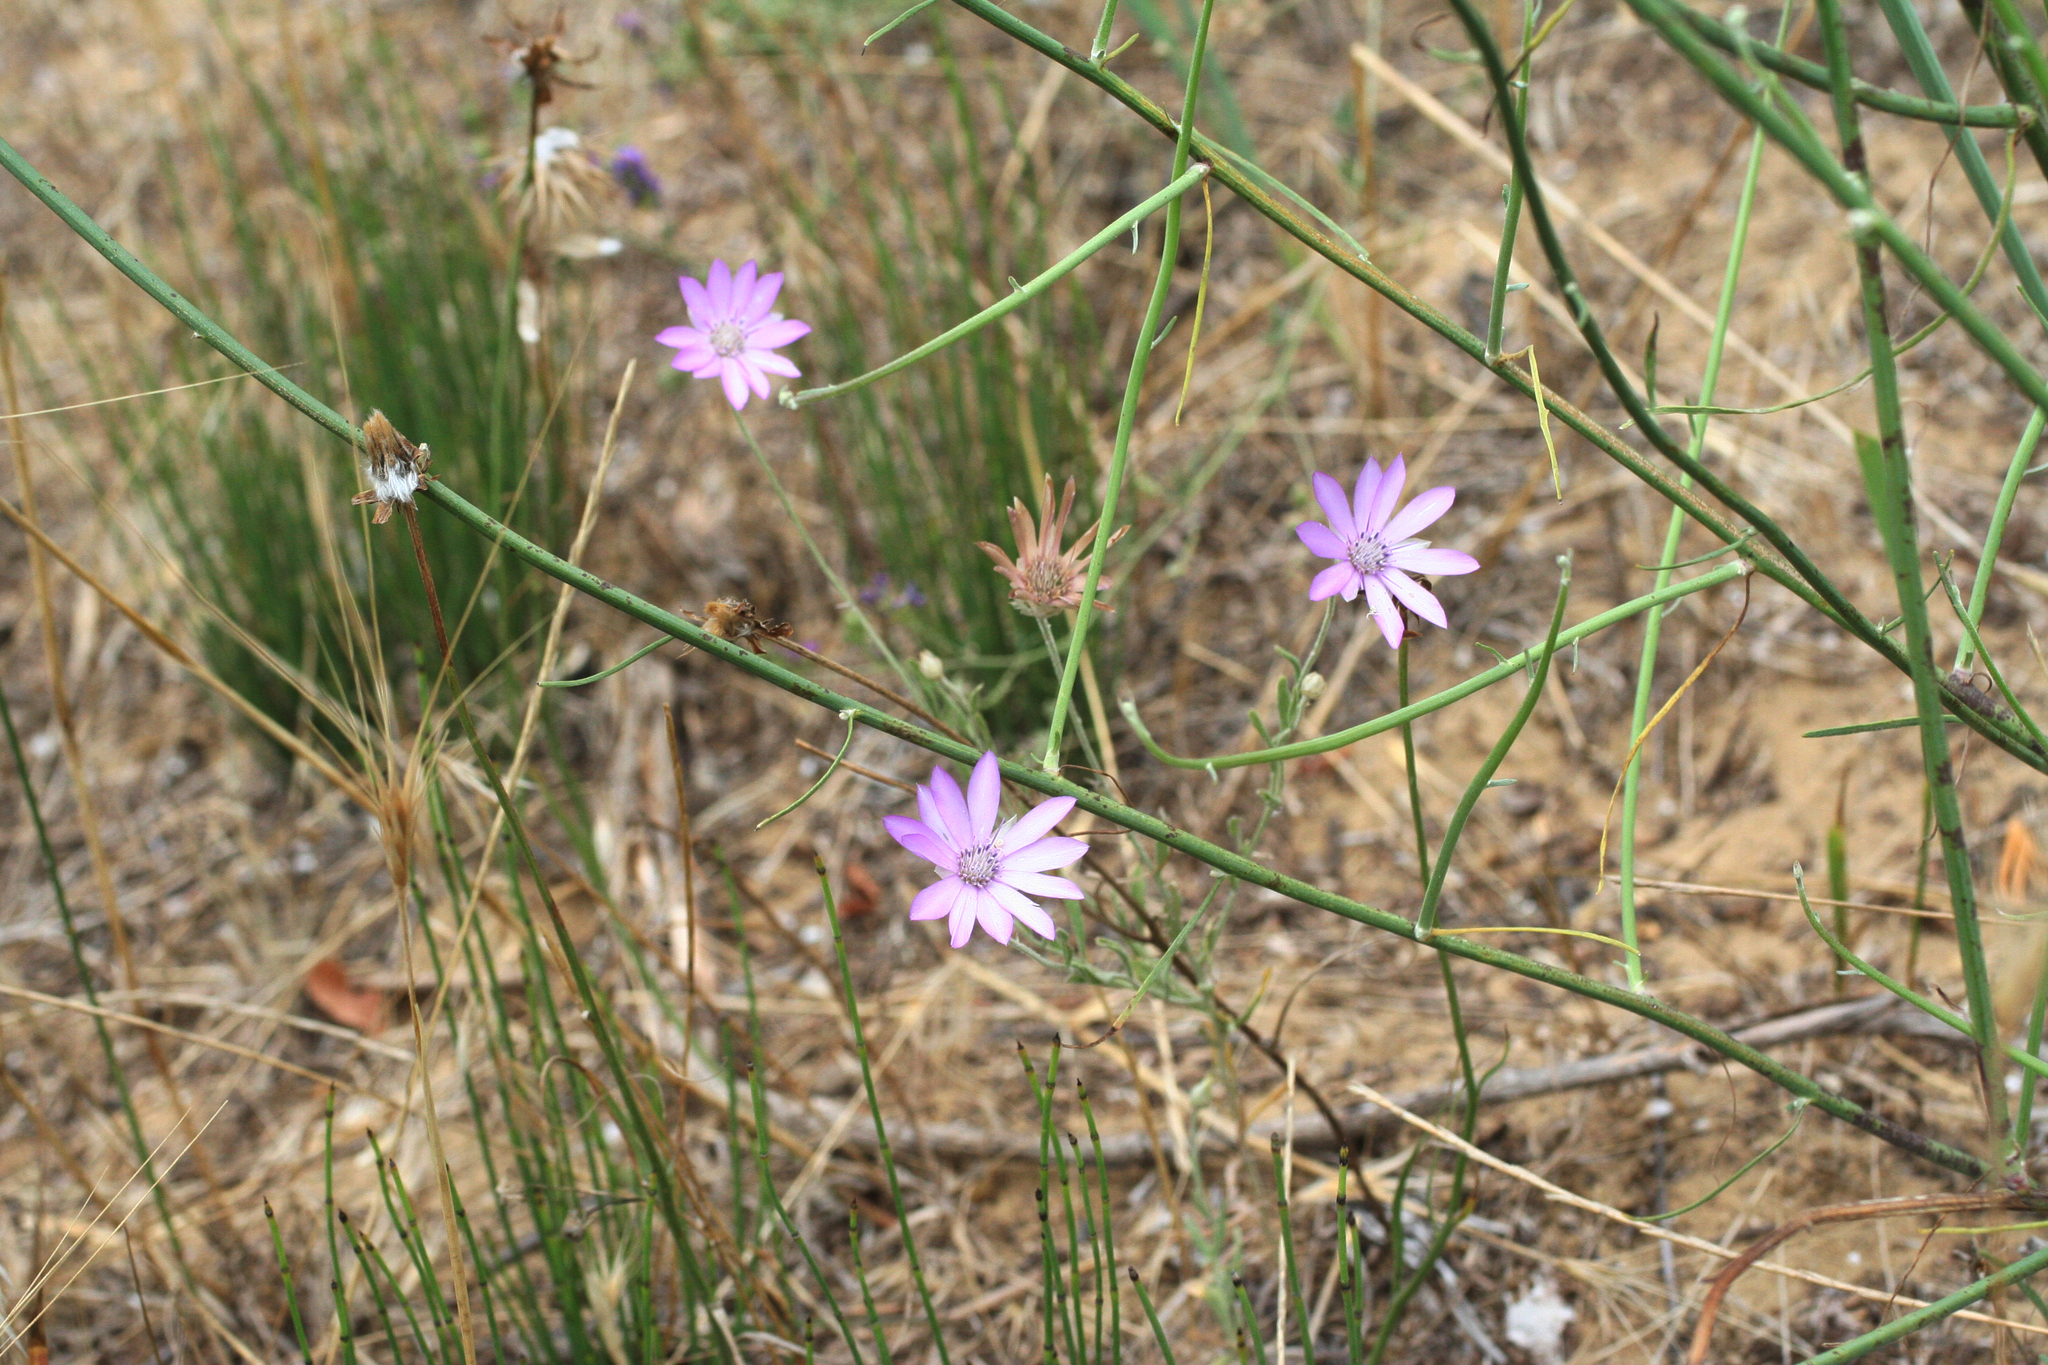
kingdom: Plantae
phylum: Tracheophyta
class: Magnoliopsida
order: Asterales
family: Asteraceae
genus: Xeranthemum
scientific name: Xeranthemum annuum
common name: Immortelle
